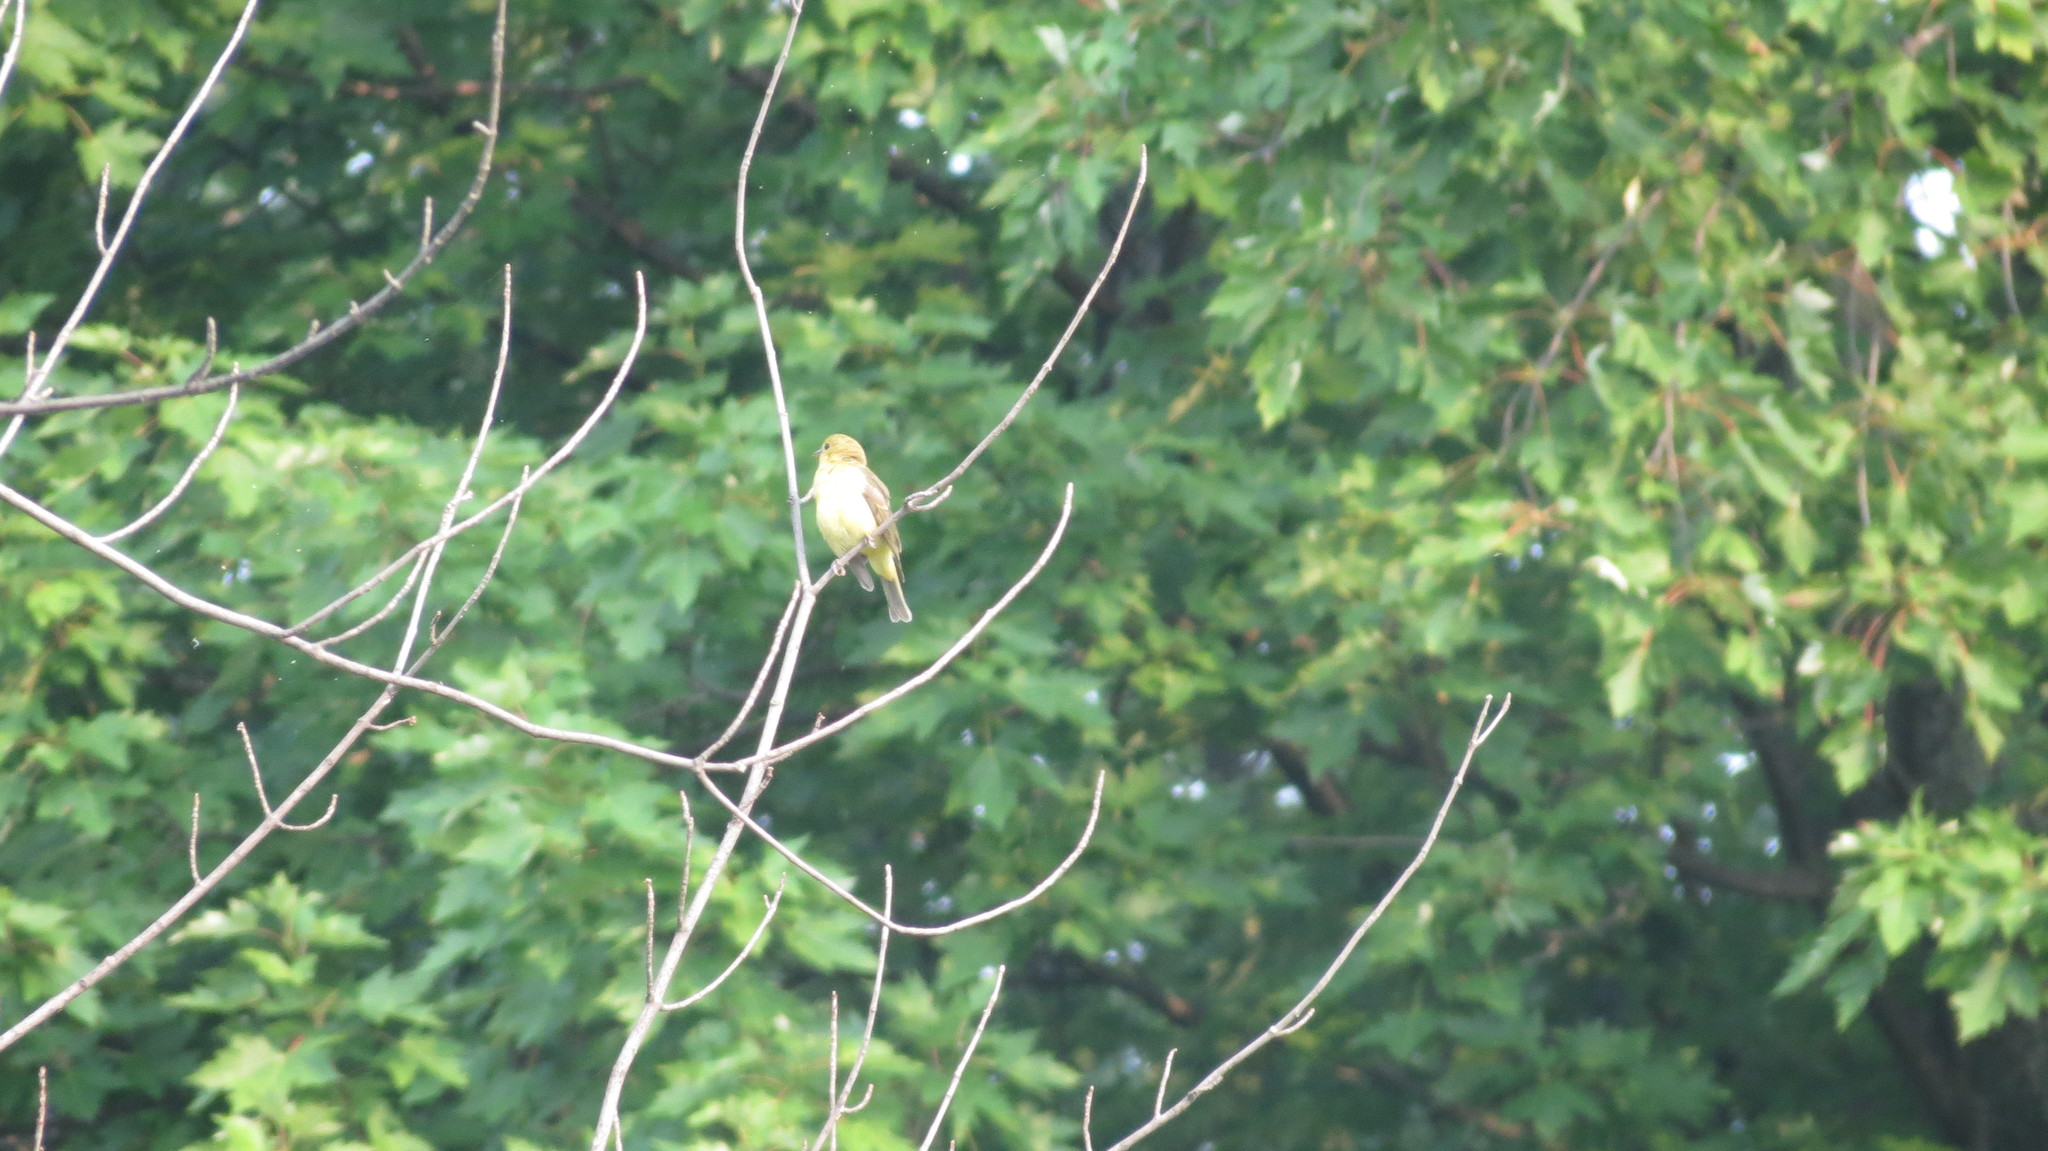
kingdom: Animalia
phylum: Chordata
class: Aves
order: Passeriformes
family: Parulidae
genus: Setophaga
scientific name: Setophaga petechia
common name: Yellow warbler
